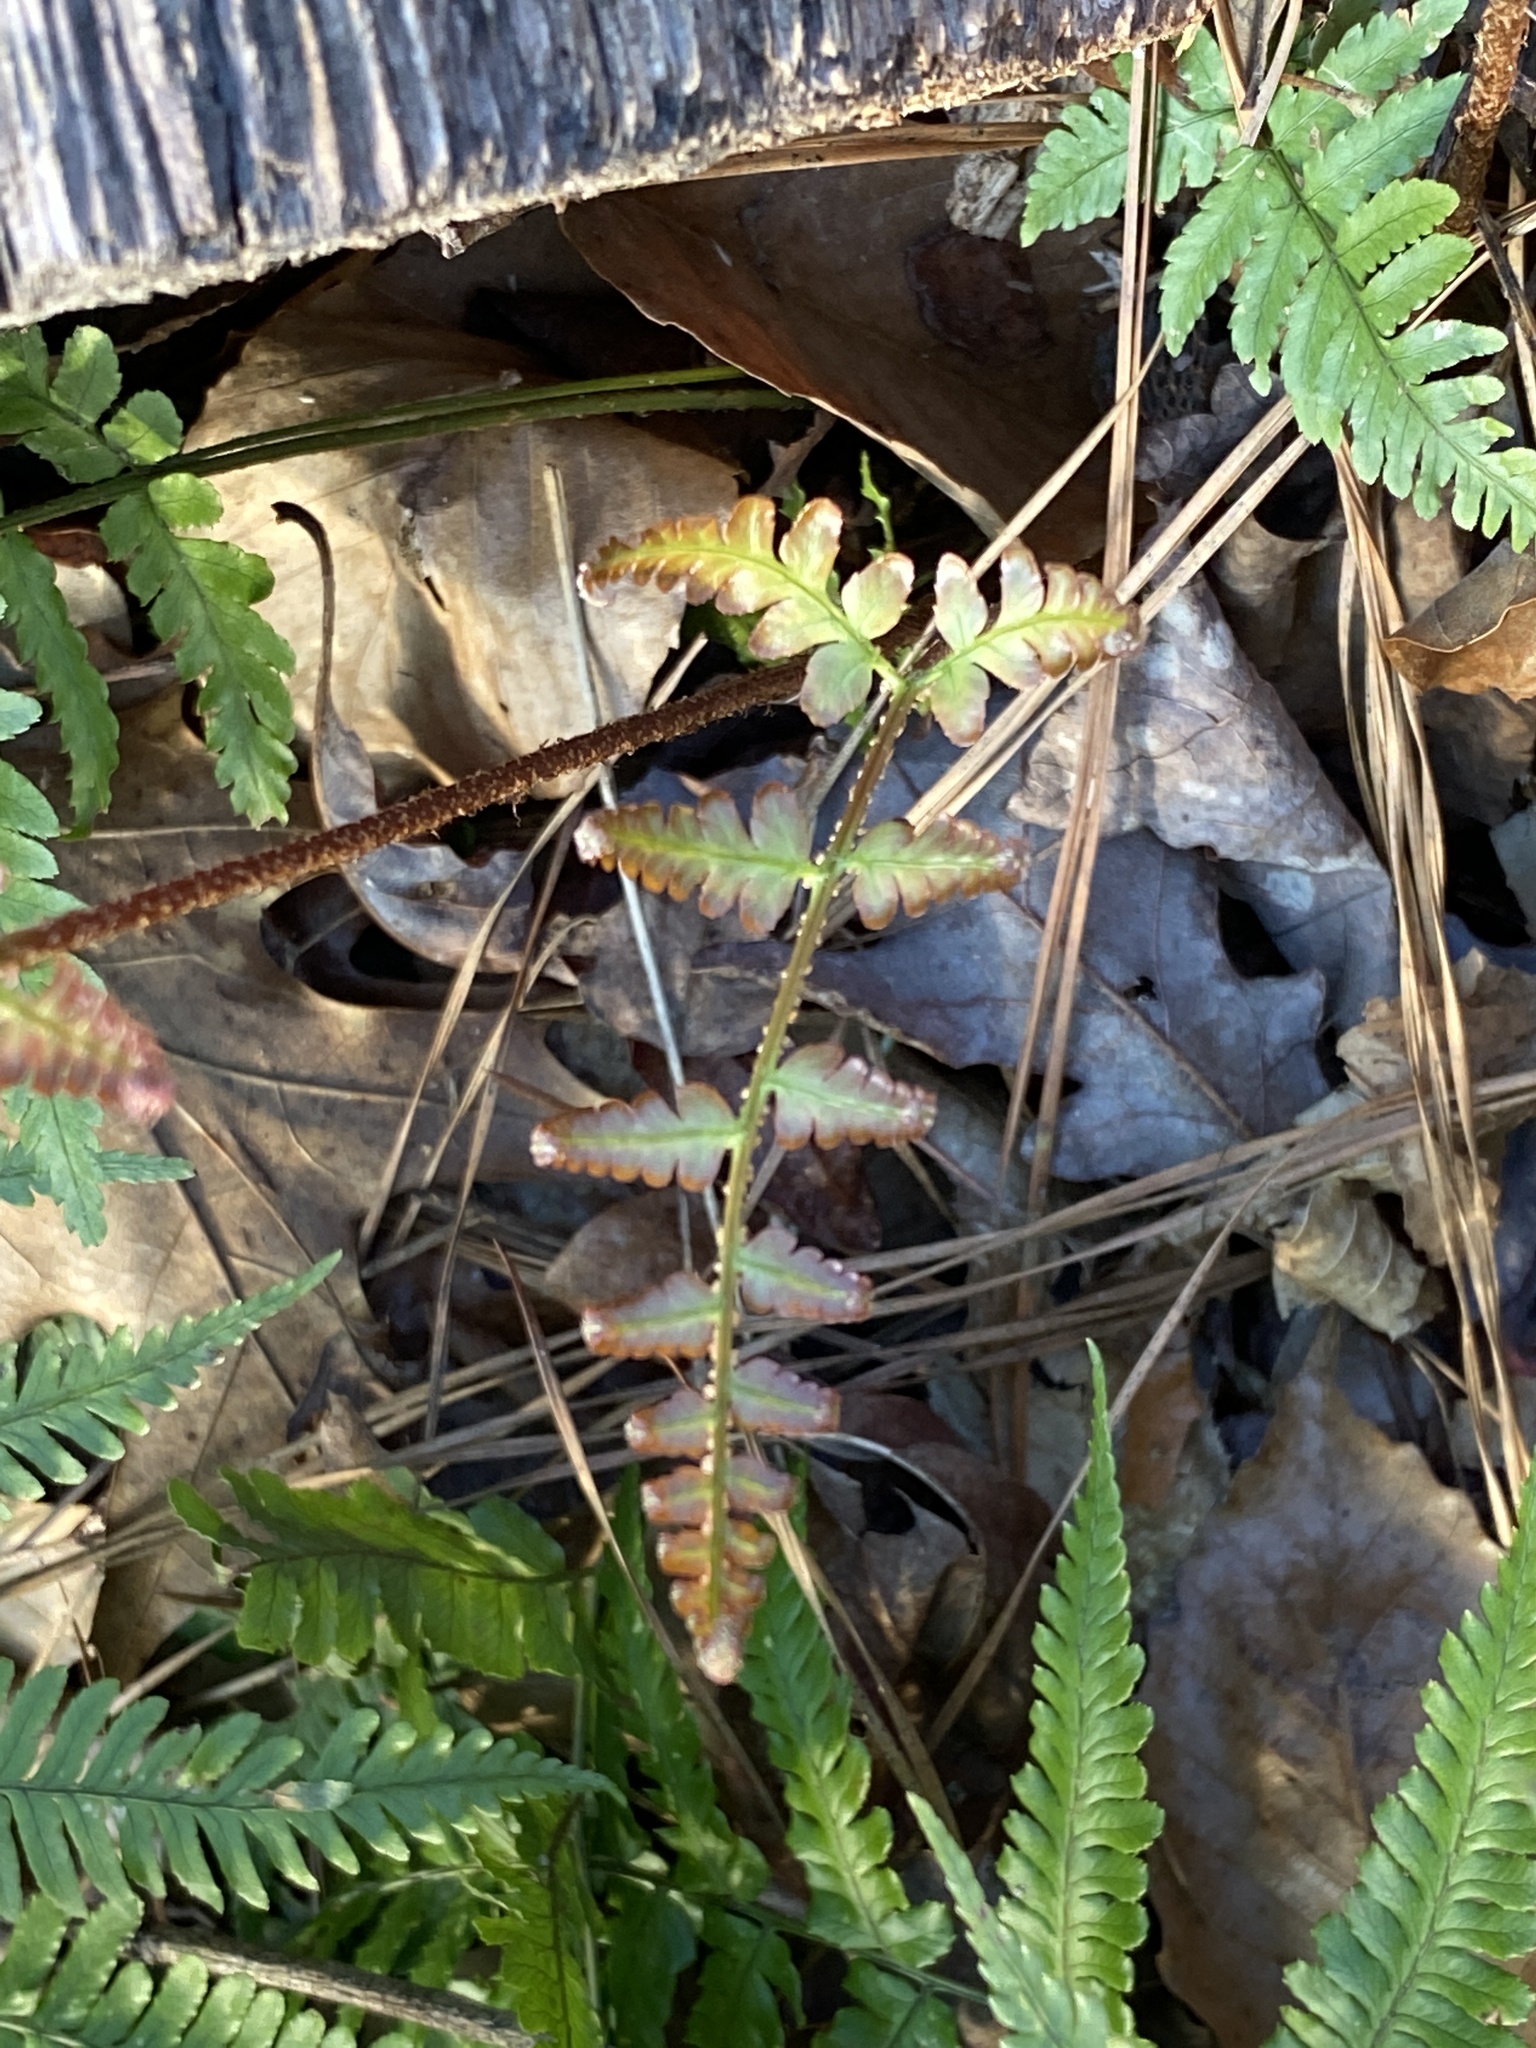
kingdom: Plantae
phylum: Tracheophyta
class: Polypodiopsida
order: Polypodiales
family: Dryopteridaceae
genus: Dryopteris
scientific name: Dryopteris erythrosora
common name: Autumn fern
